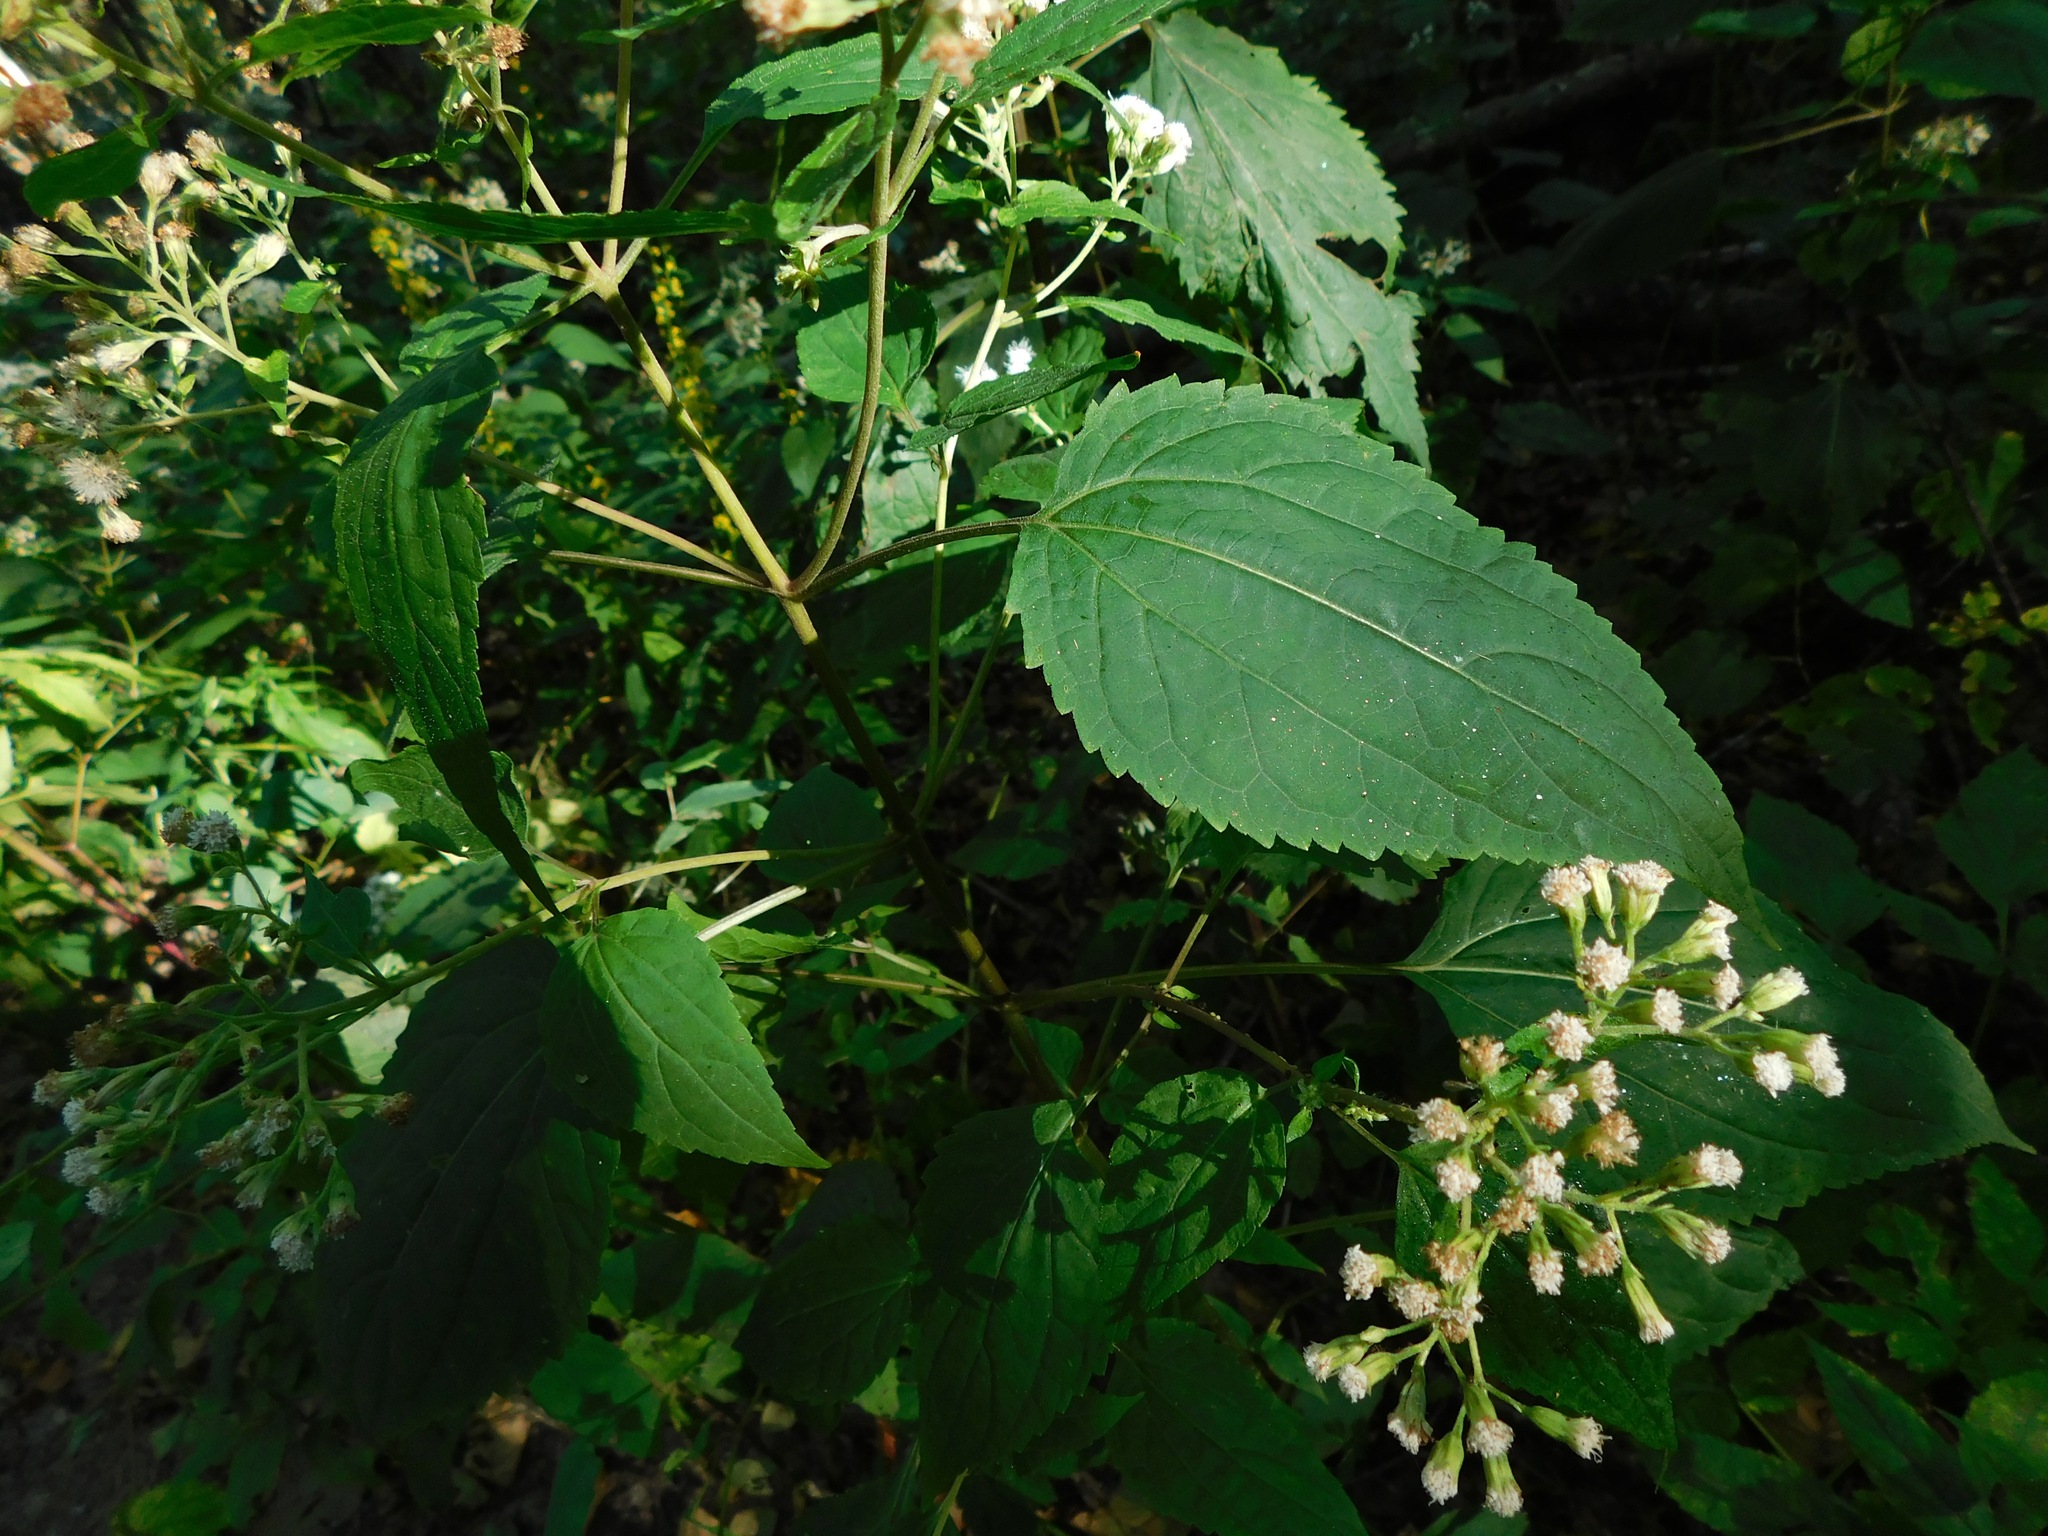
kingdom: Plantae
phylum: Tracheophyta
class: Magnoliopsida
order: Asterales
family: Asteraceae
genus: Ageratina
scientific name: Ageratina roanensis
